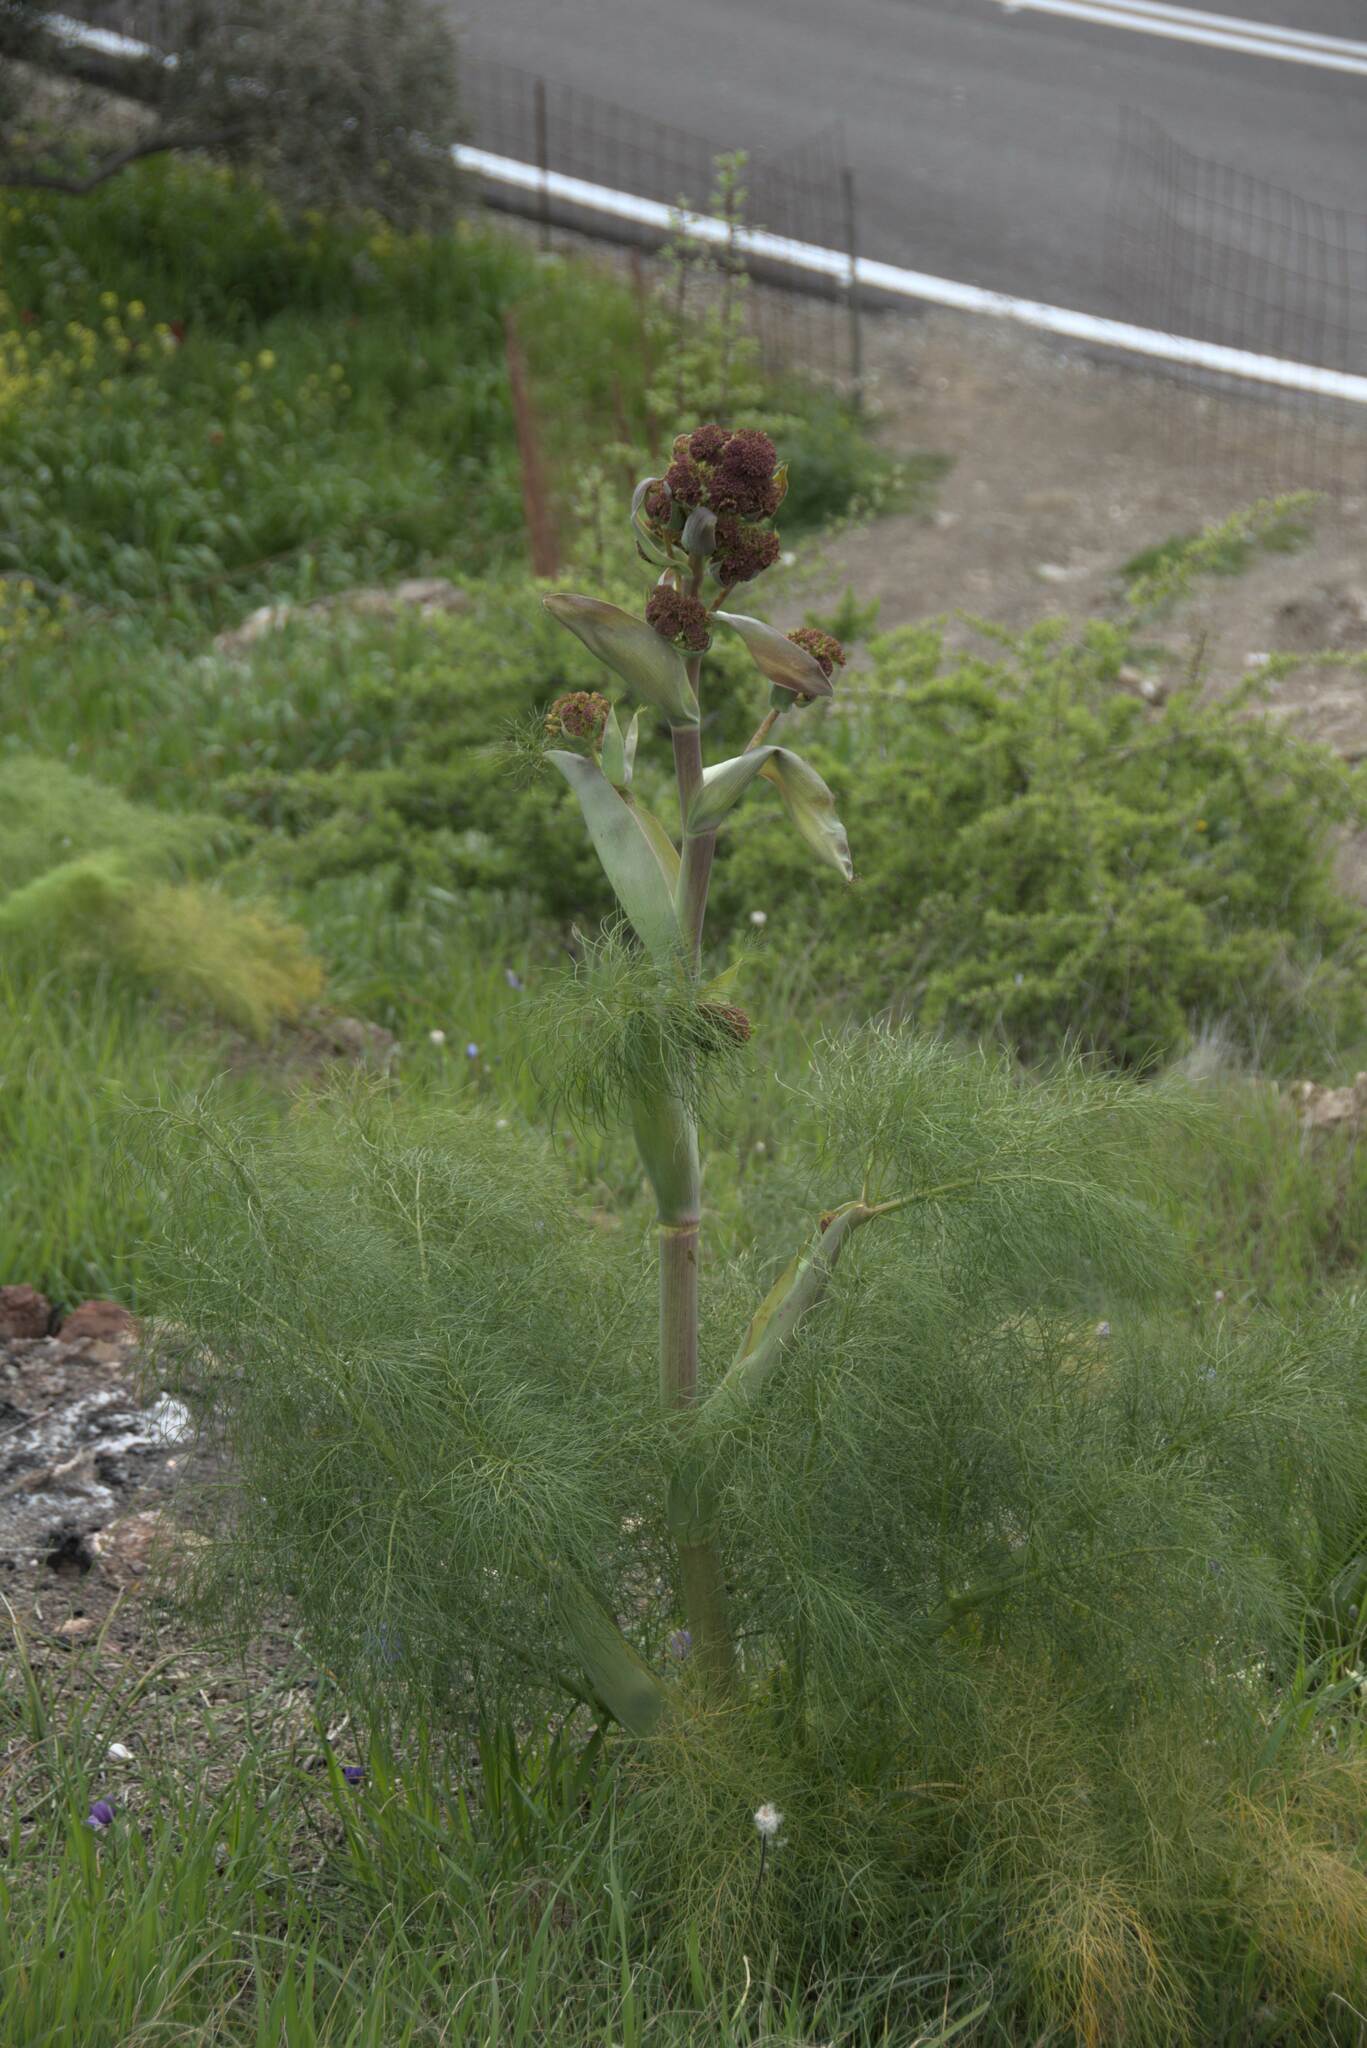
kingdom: Plantae
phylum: Tracheophyta
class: Magnoliopsida
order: Apiales
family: Apiaceae
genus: Ferula
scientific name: Ferula communis
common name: Giant fennel
